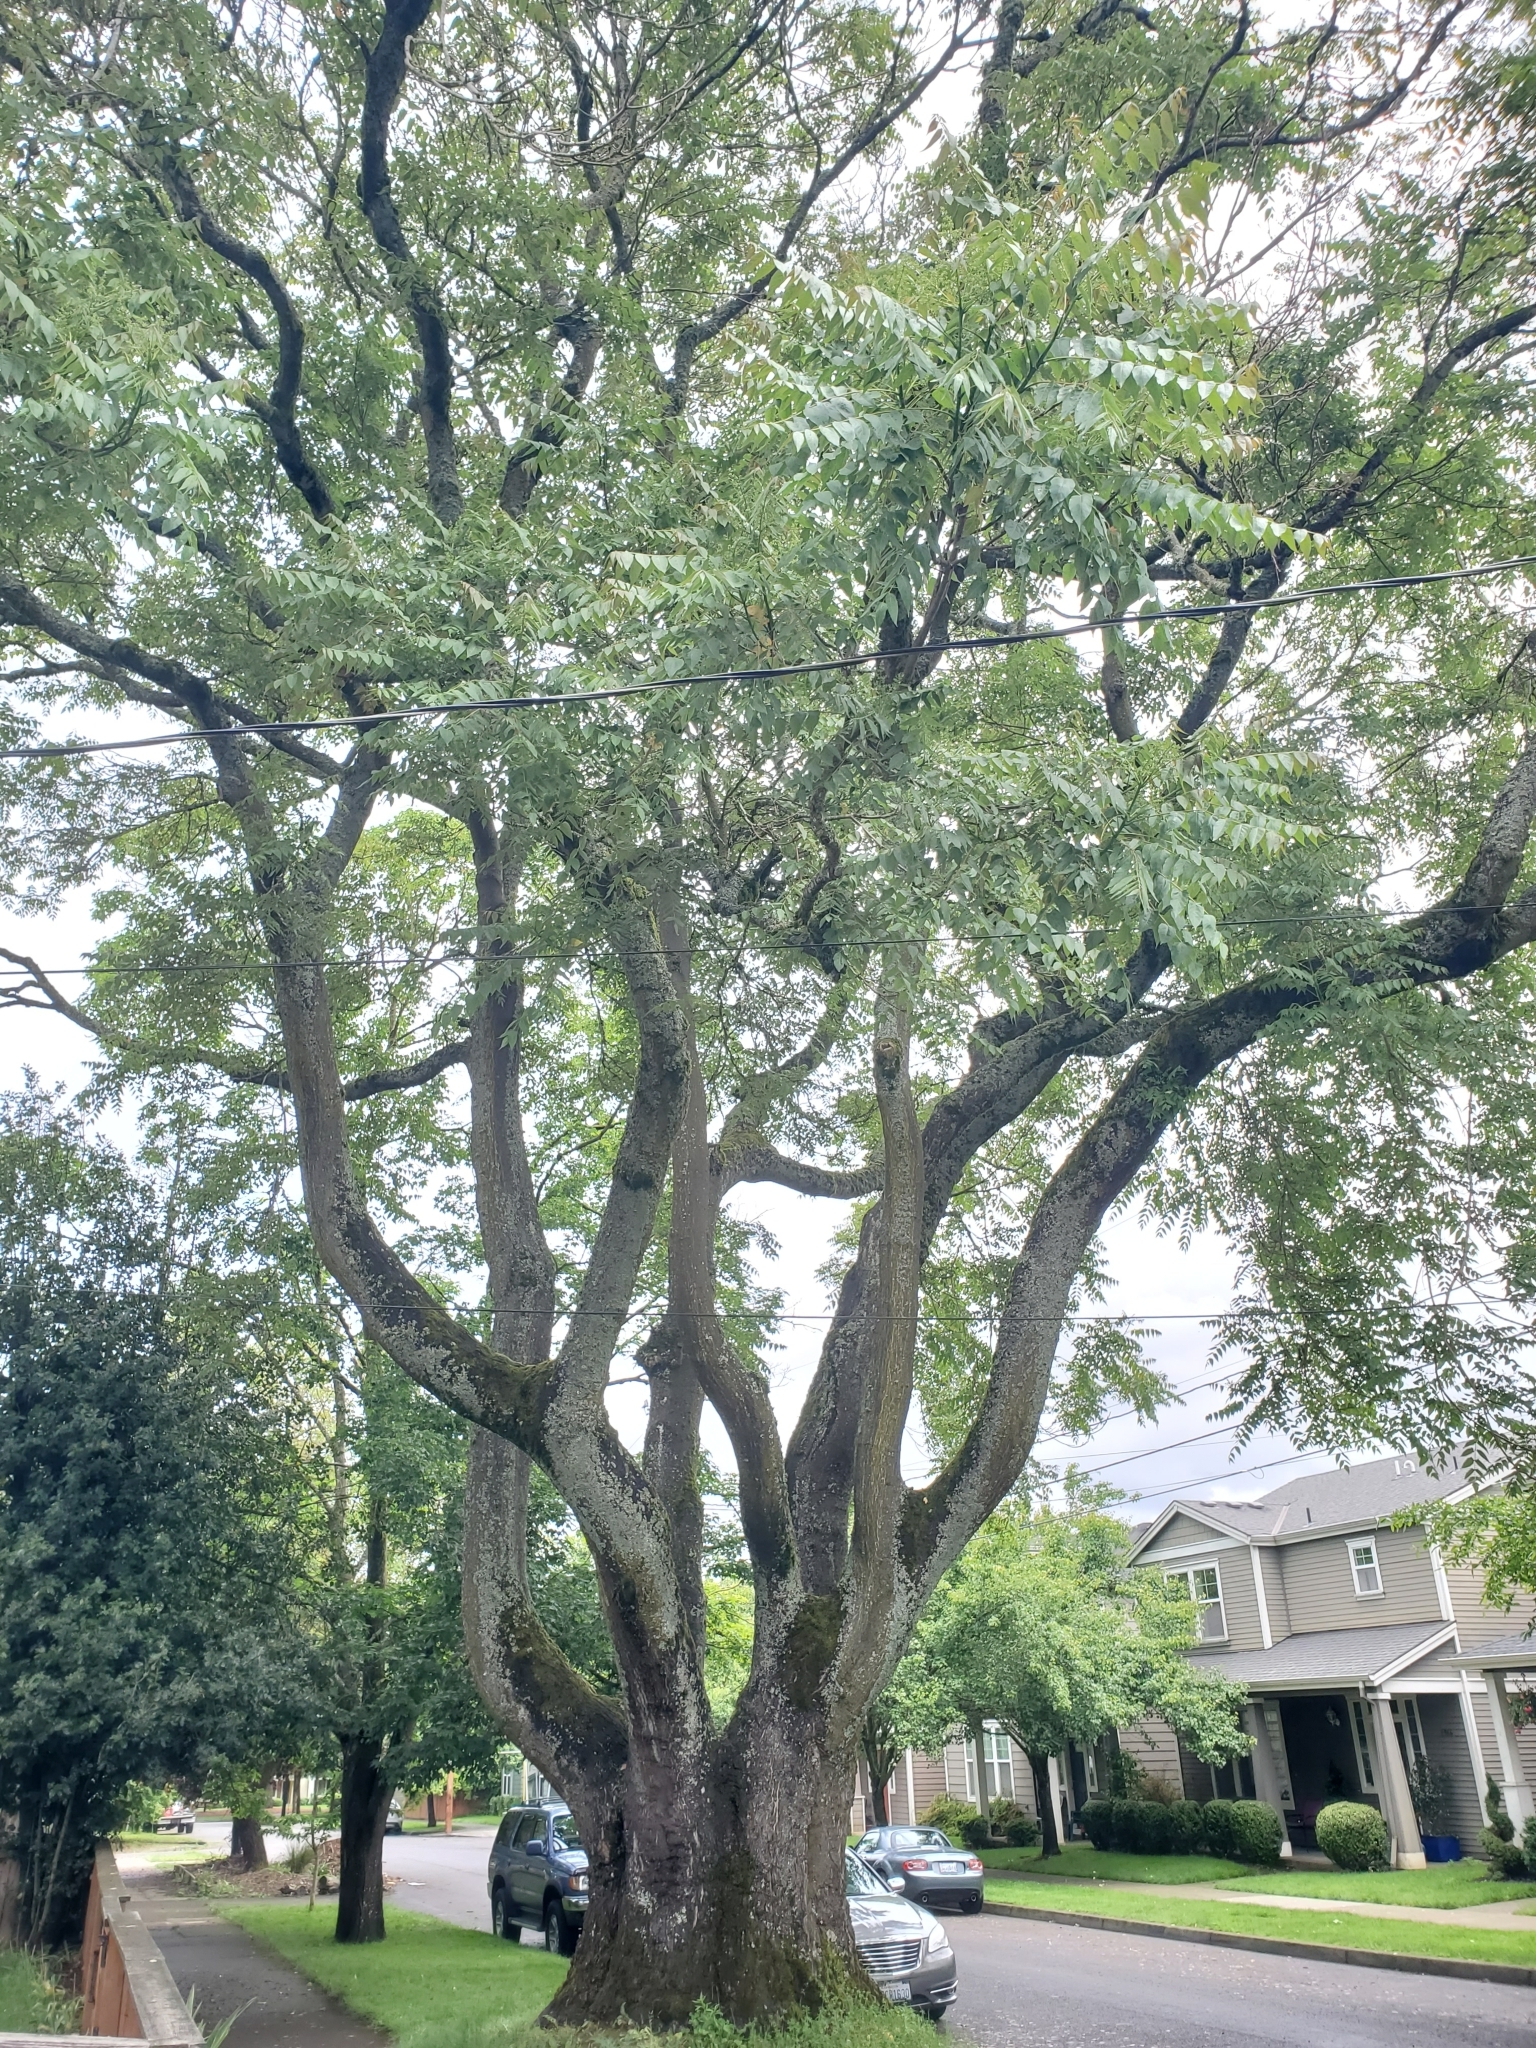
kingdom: Plantae
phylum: Tracheophyta
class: Magnoliopsida
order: Sapindales
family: Simaroubaceae
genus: Ailanthus
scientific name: Ailanthus altissima
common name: Tree-of-heaven
